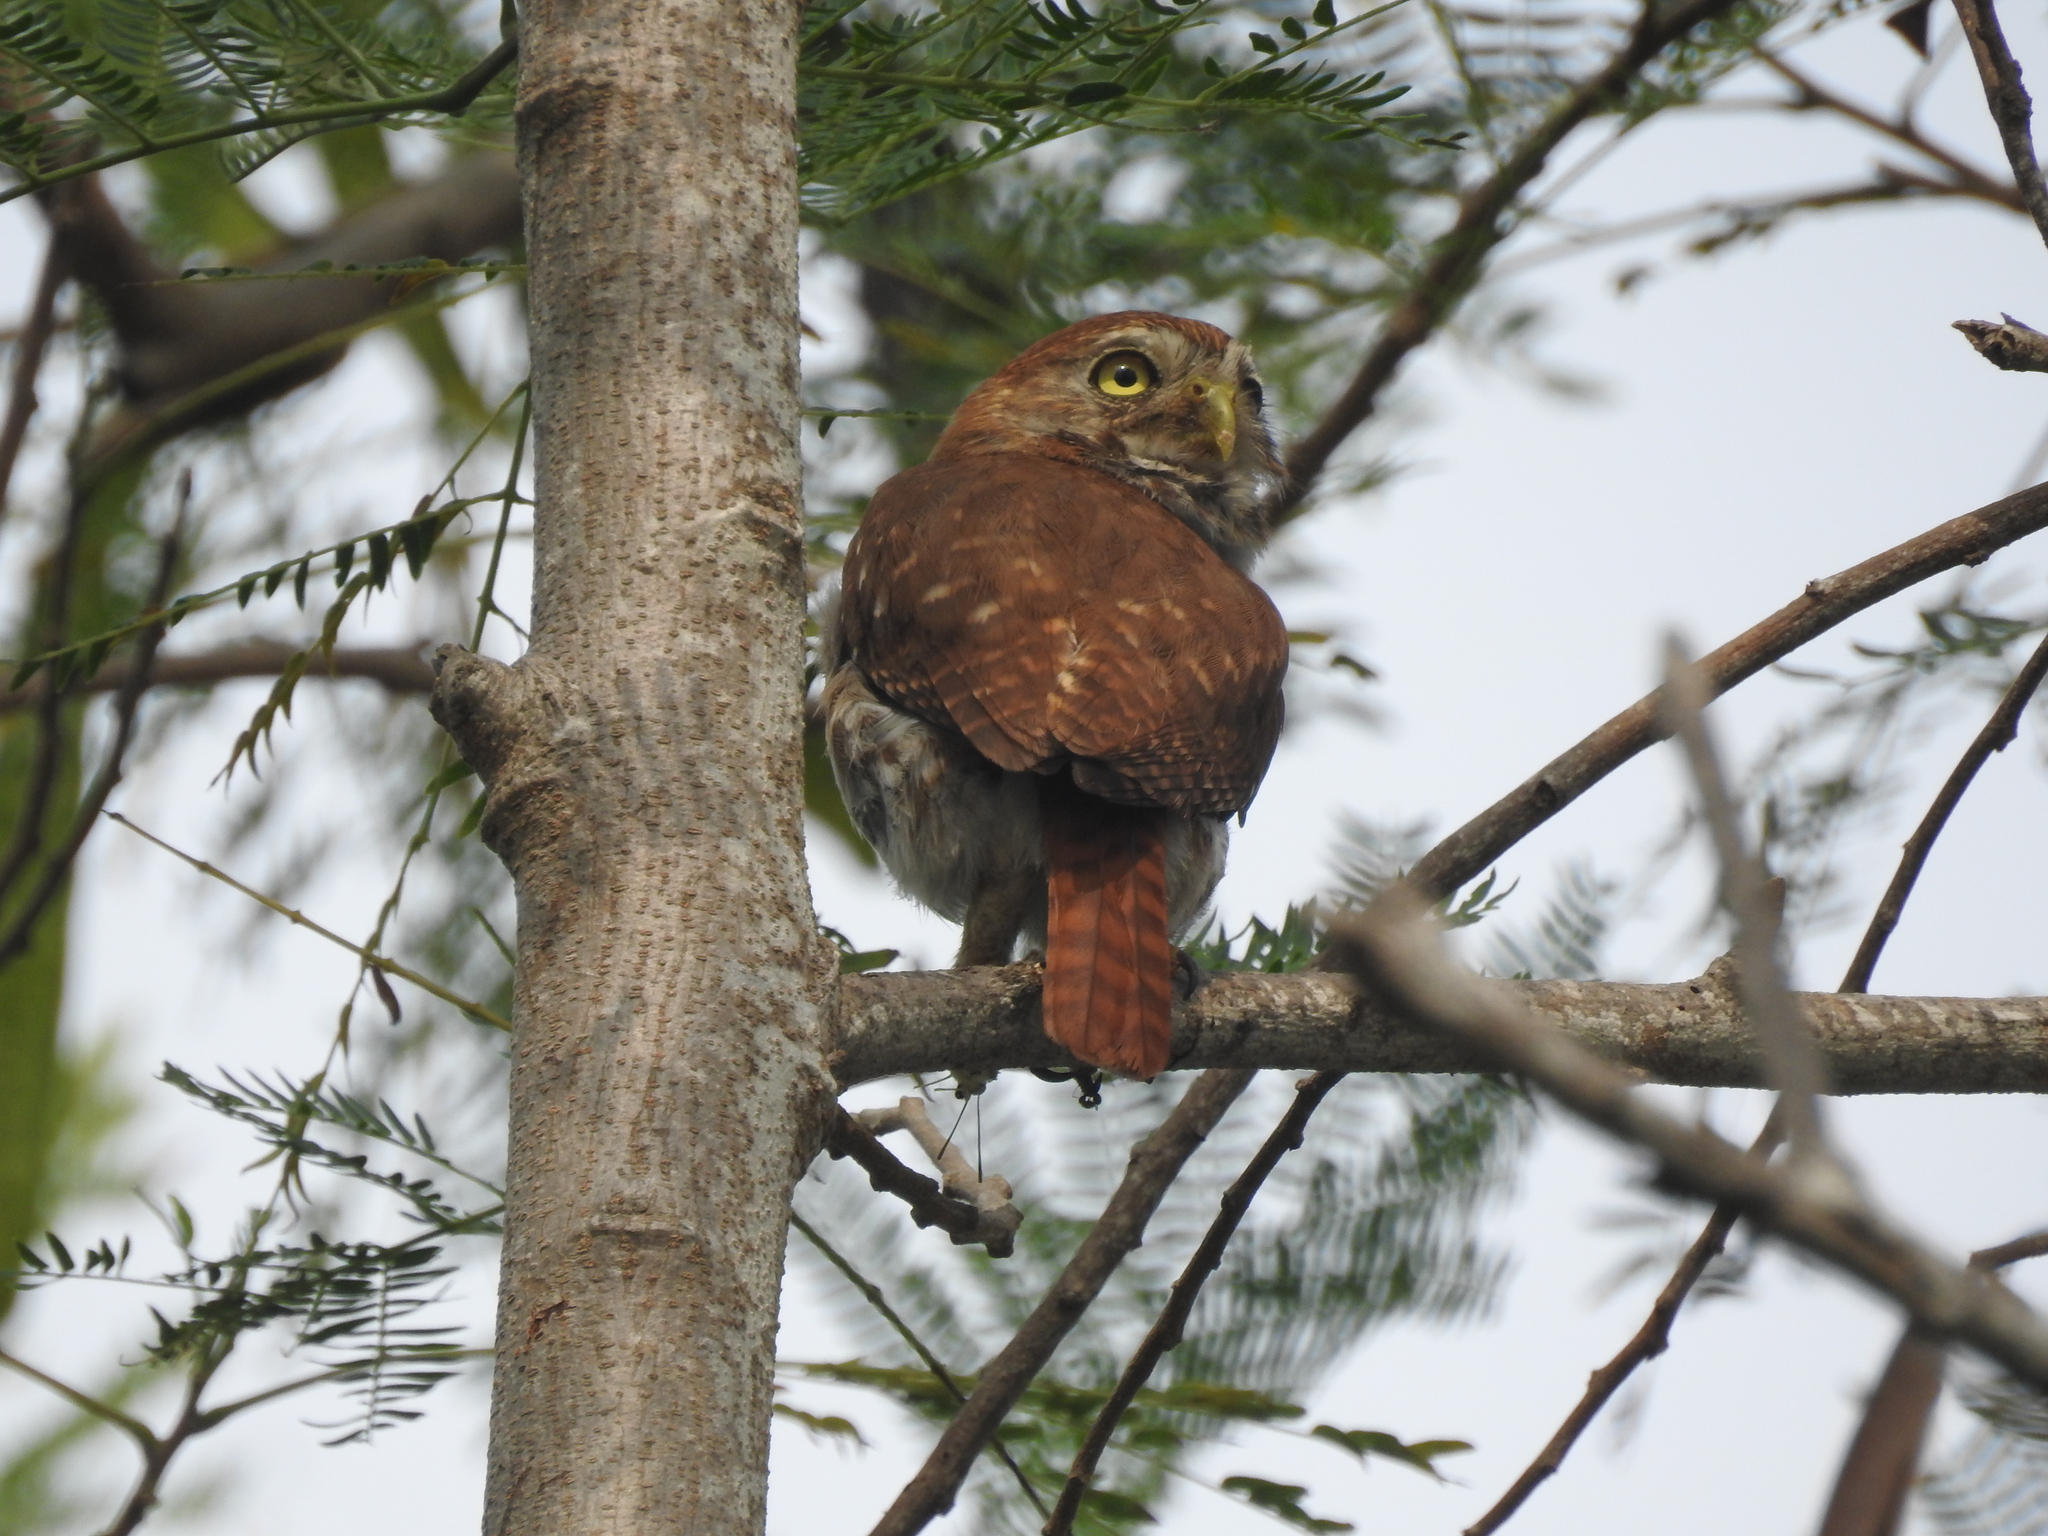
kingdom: Animalia
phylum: Chordata
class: Aves
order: Strigiformes
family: Strigidae
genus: Glaucidium
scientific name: Glaucidium brasilianum
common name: Ferruginous pygmy-owl
